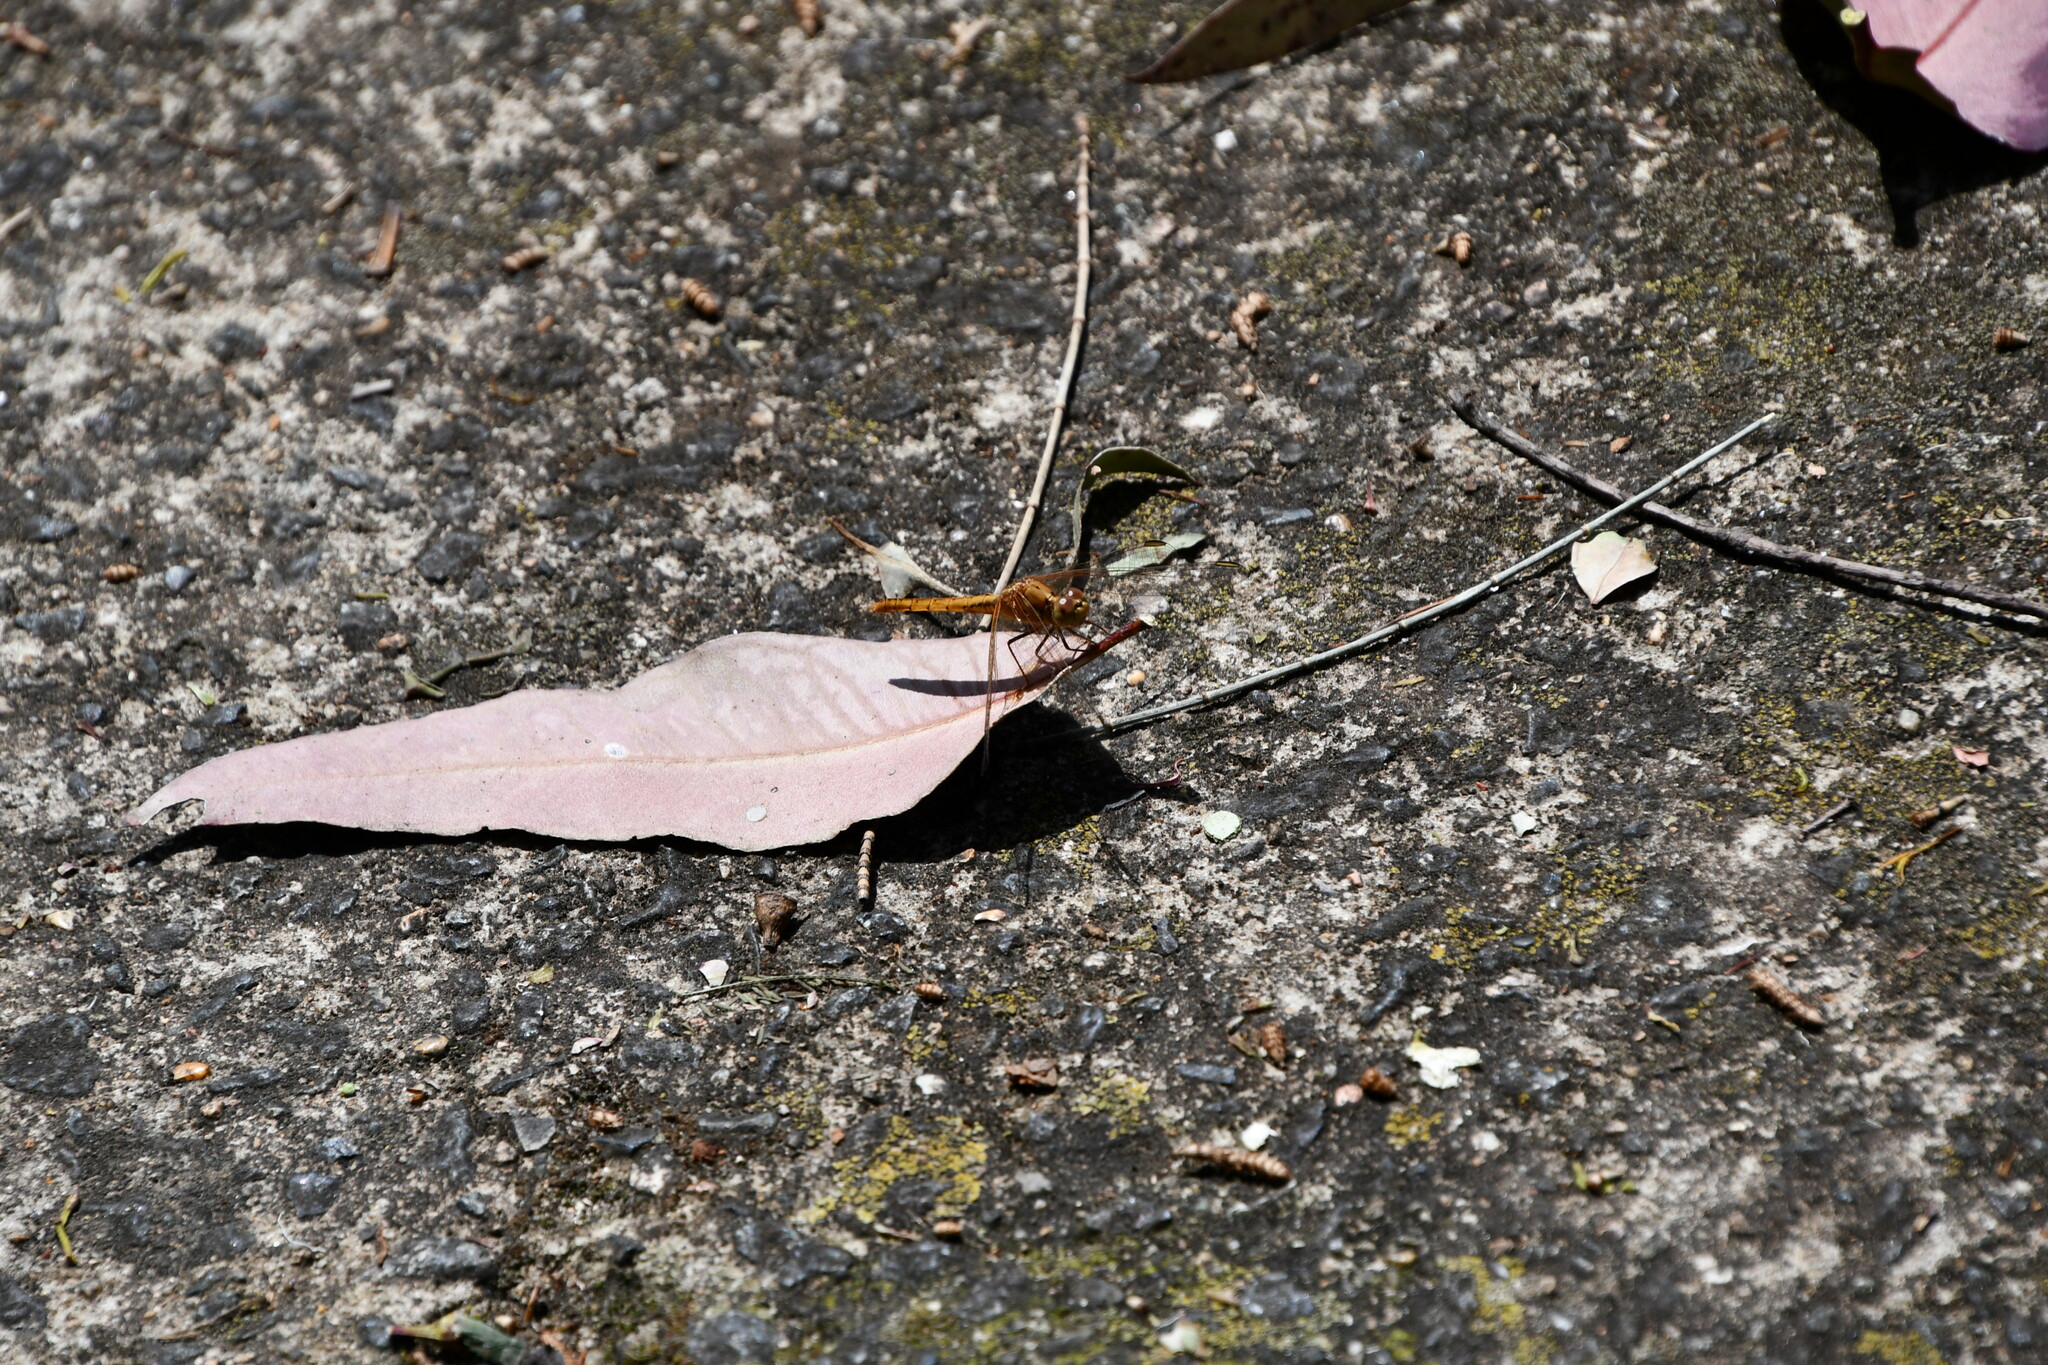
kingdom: Animalia
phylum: Arthropoda
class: Insecta
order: Odonata
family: Libellulidae
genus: Diplacodes
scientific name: Diplacodes haematodes
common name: Scarlet percher
